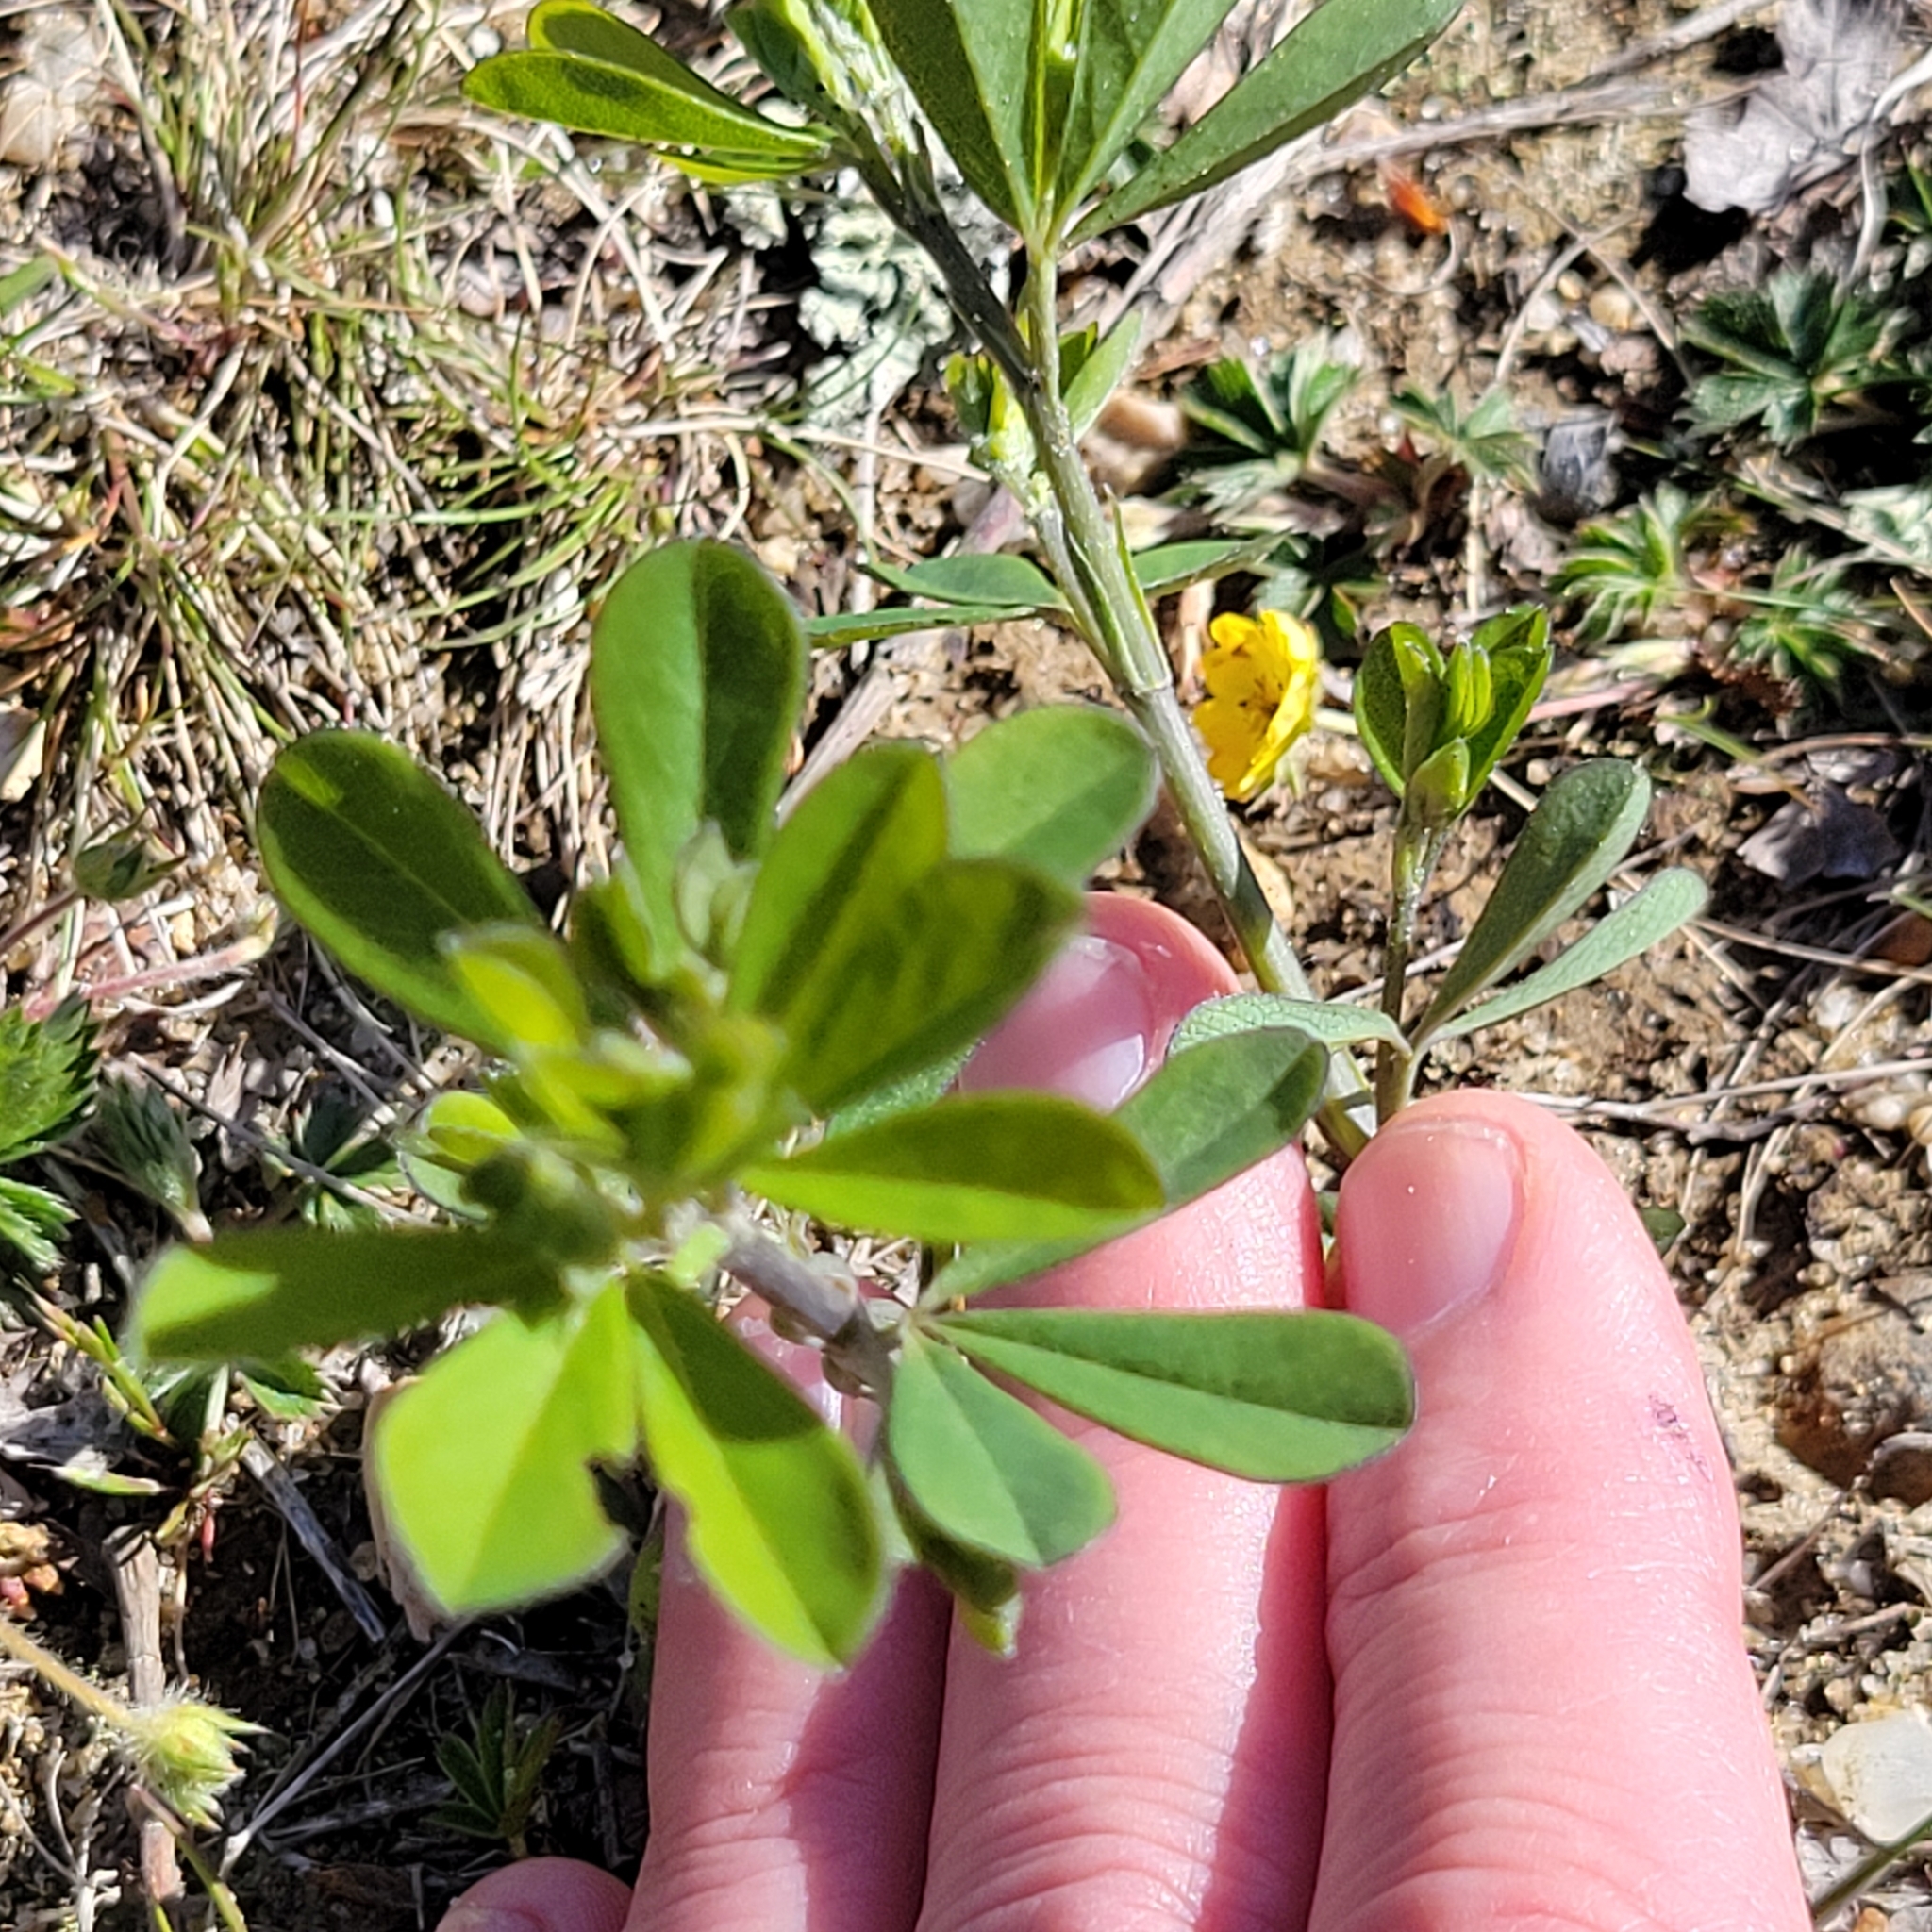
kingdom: Plantae
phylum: Tracheophyta
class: Magnoliopsida
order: Fabales
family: Fabaceae
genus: Baptisia
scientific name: Baptisia tinctoria
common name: Wild indigo
